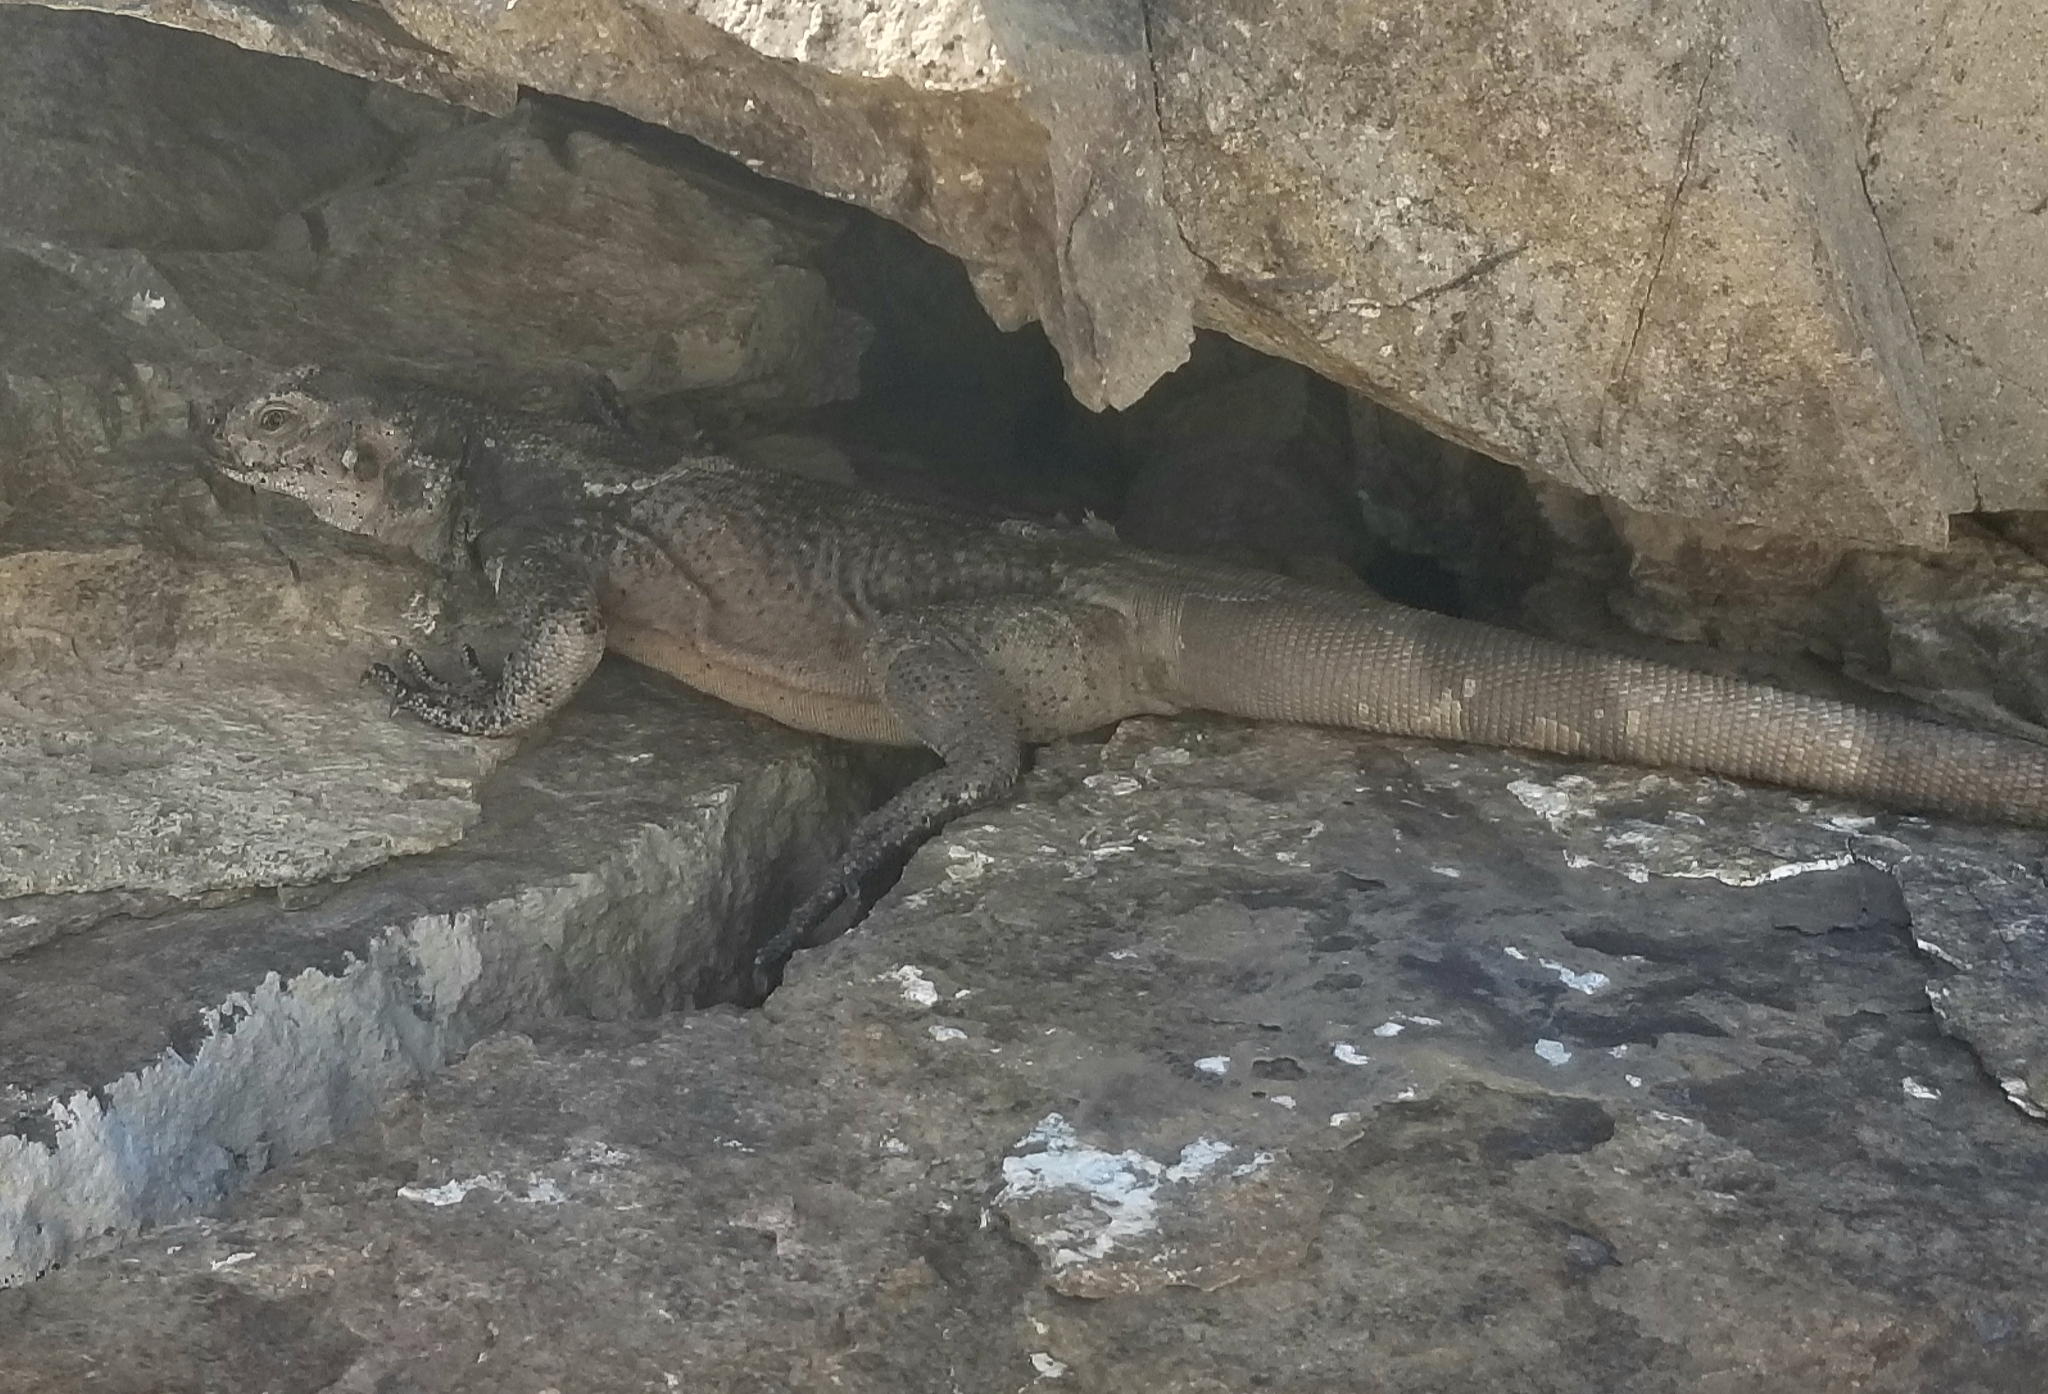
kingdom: Animalia
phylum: Chordata
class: Squamata
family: Iguanidae
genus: Sauromalus
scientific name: Sauromalus ater
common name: Northern chuckwalla
